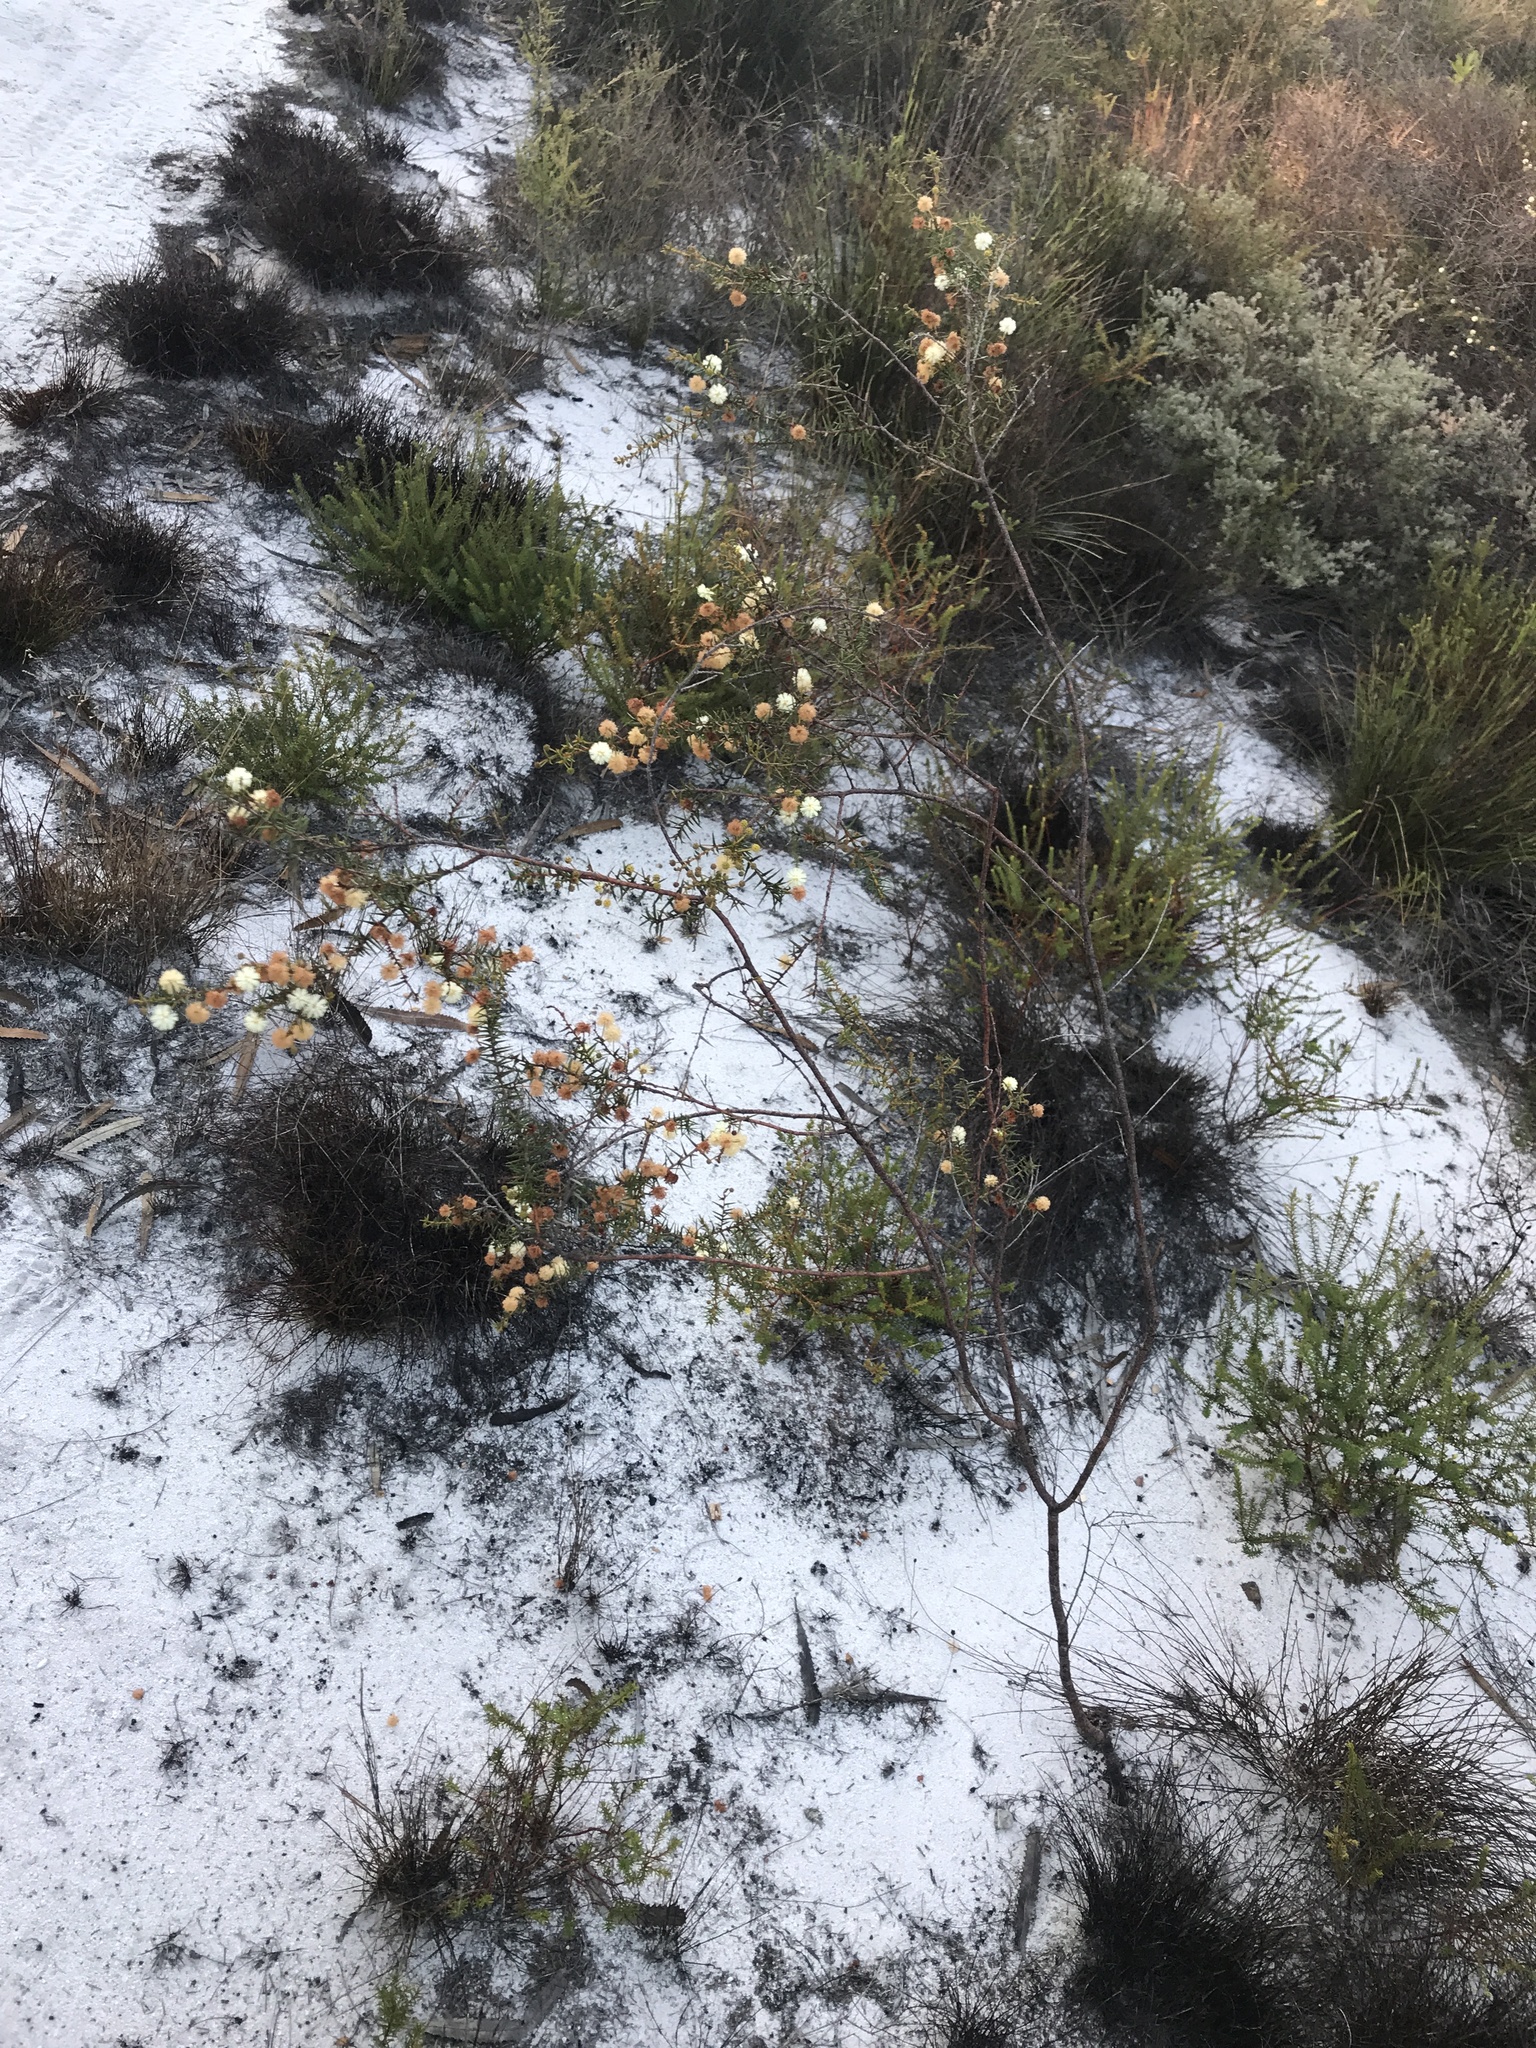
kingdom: Plantae
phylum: Tracheophyta
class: Magnoliopsida
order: Fabales
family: Fabaceae
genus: Acacia
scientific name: Acacia ulicifolia
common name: Juniper wattle
